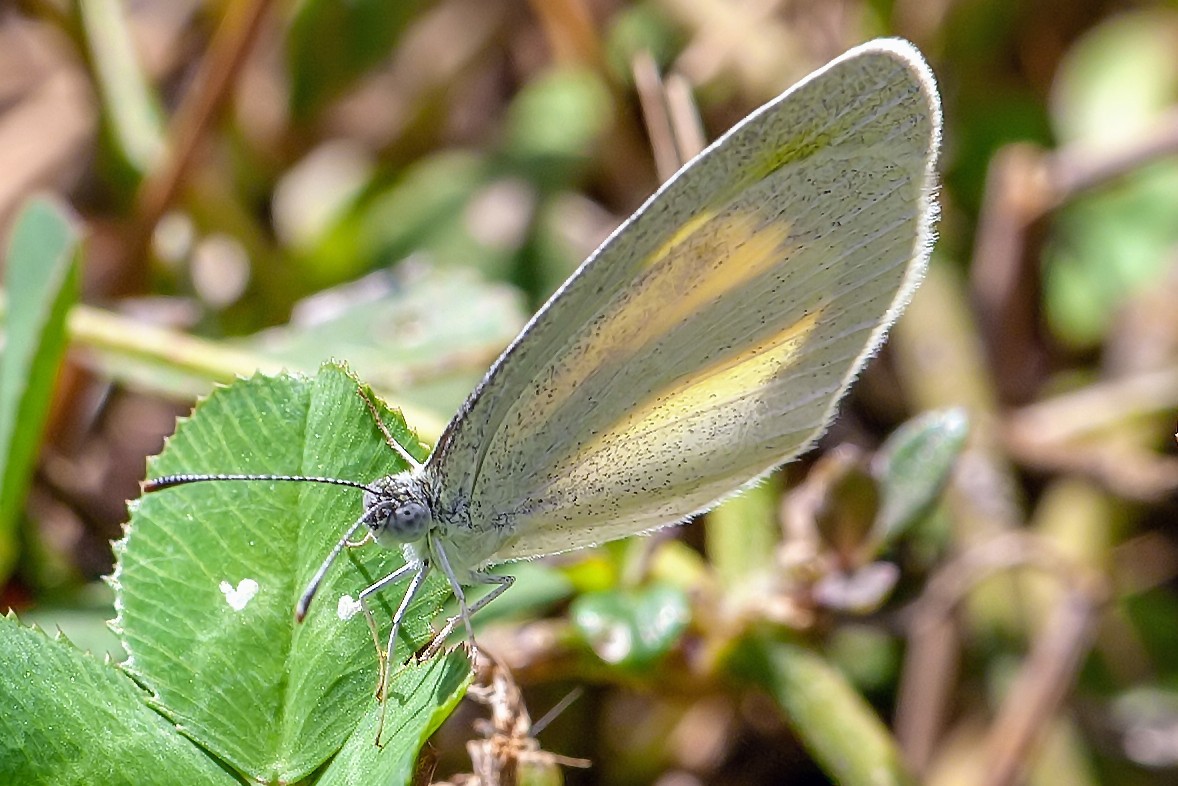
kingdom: Animalia
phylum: Arthropoda
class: Insecta
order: Lepidoptera
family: Pieridae
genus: Eurema
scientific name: Eurema daira
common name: Barred sulphur
